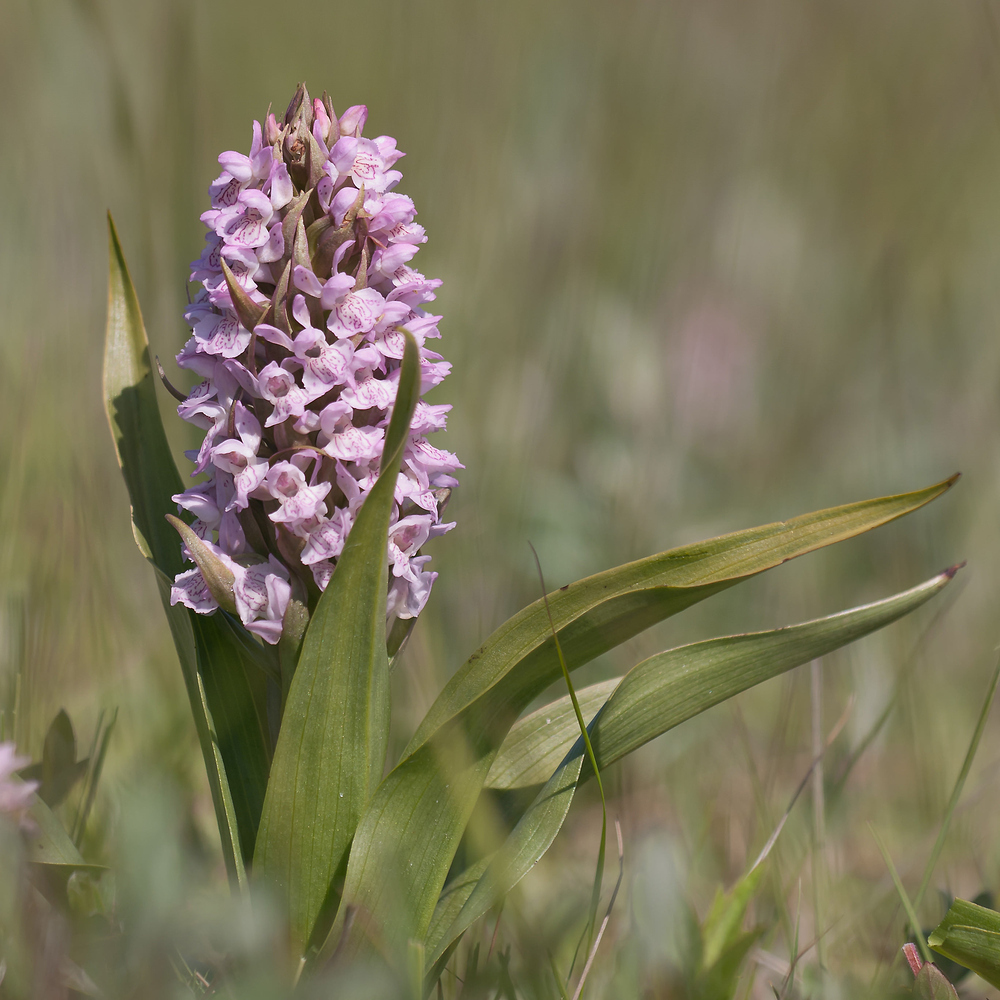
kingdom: Plantae
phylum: Tracheophyta
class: Liliopsida
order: Asparagales
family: Orchidaceae
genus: Dactylorhiza
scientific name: Dactylorhiza incarnata
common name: Early marsh-orchid
